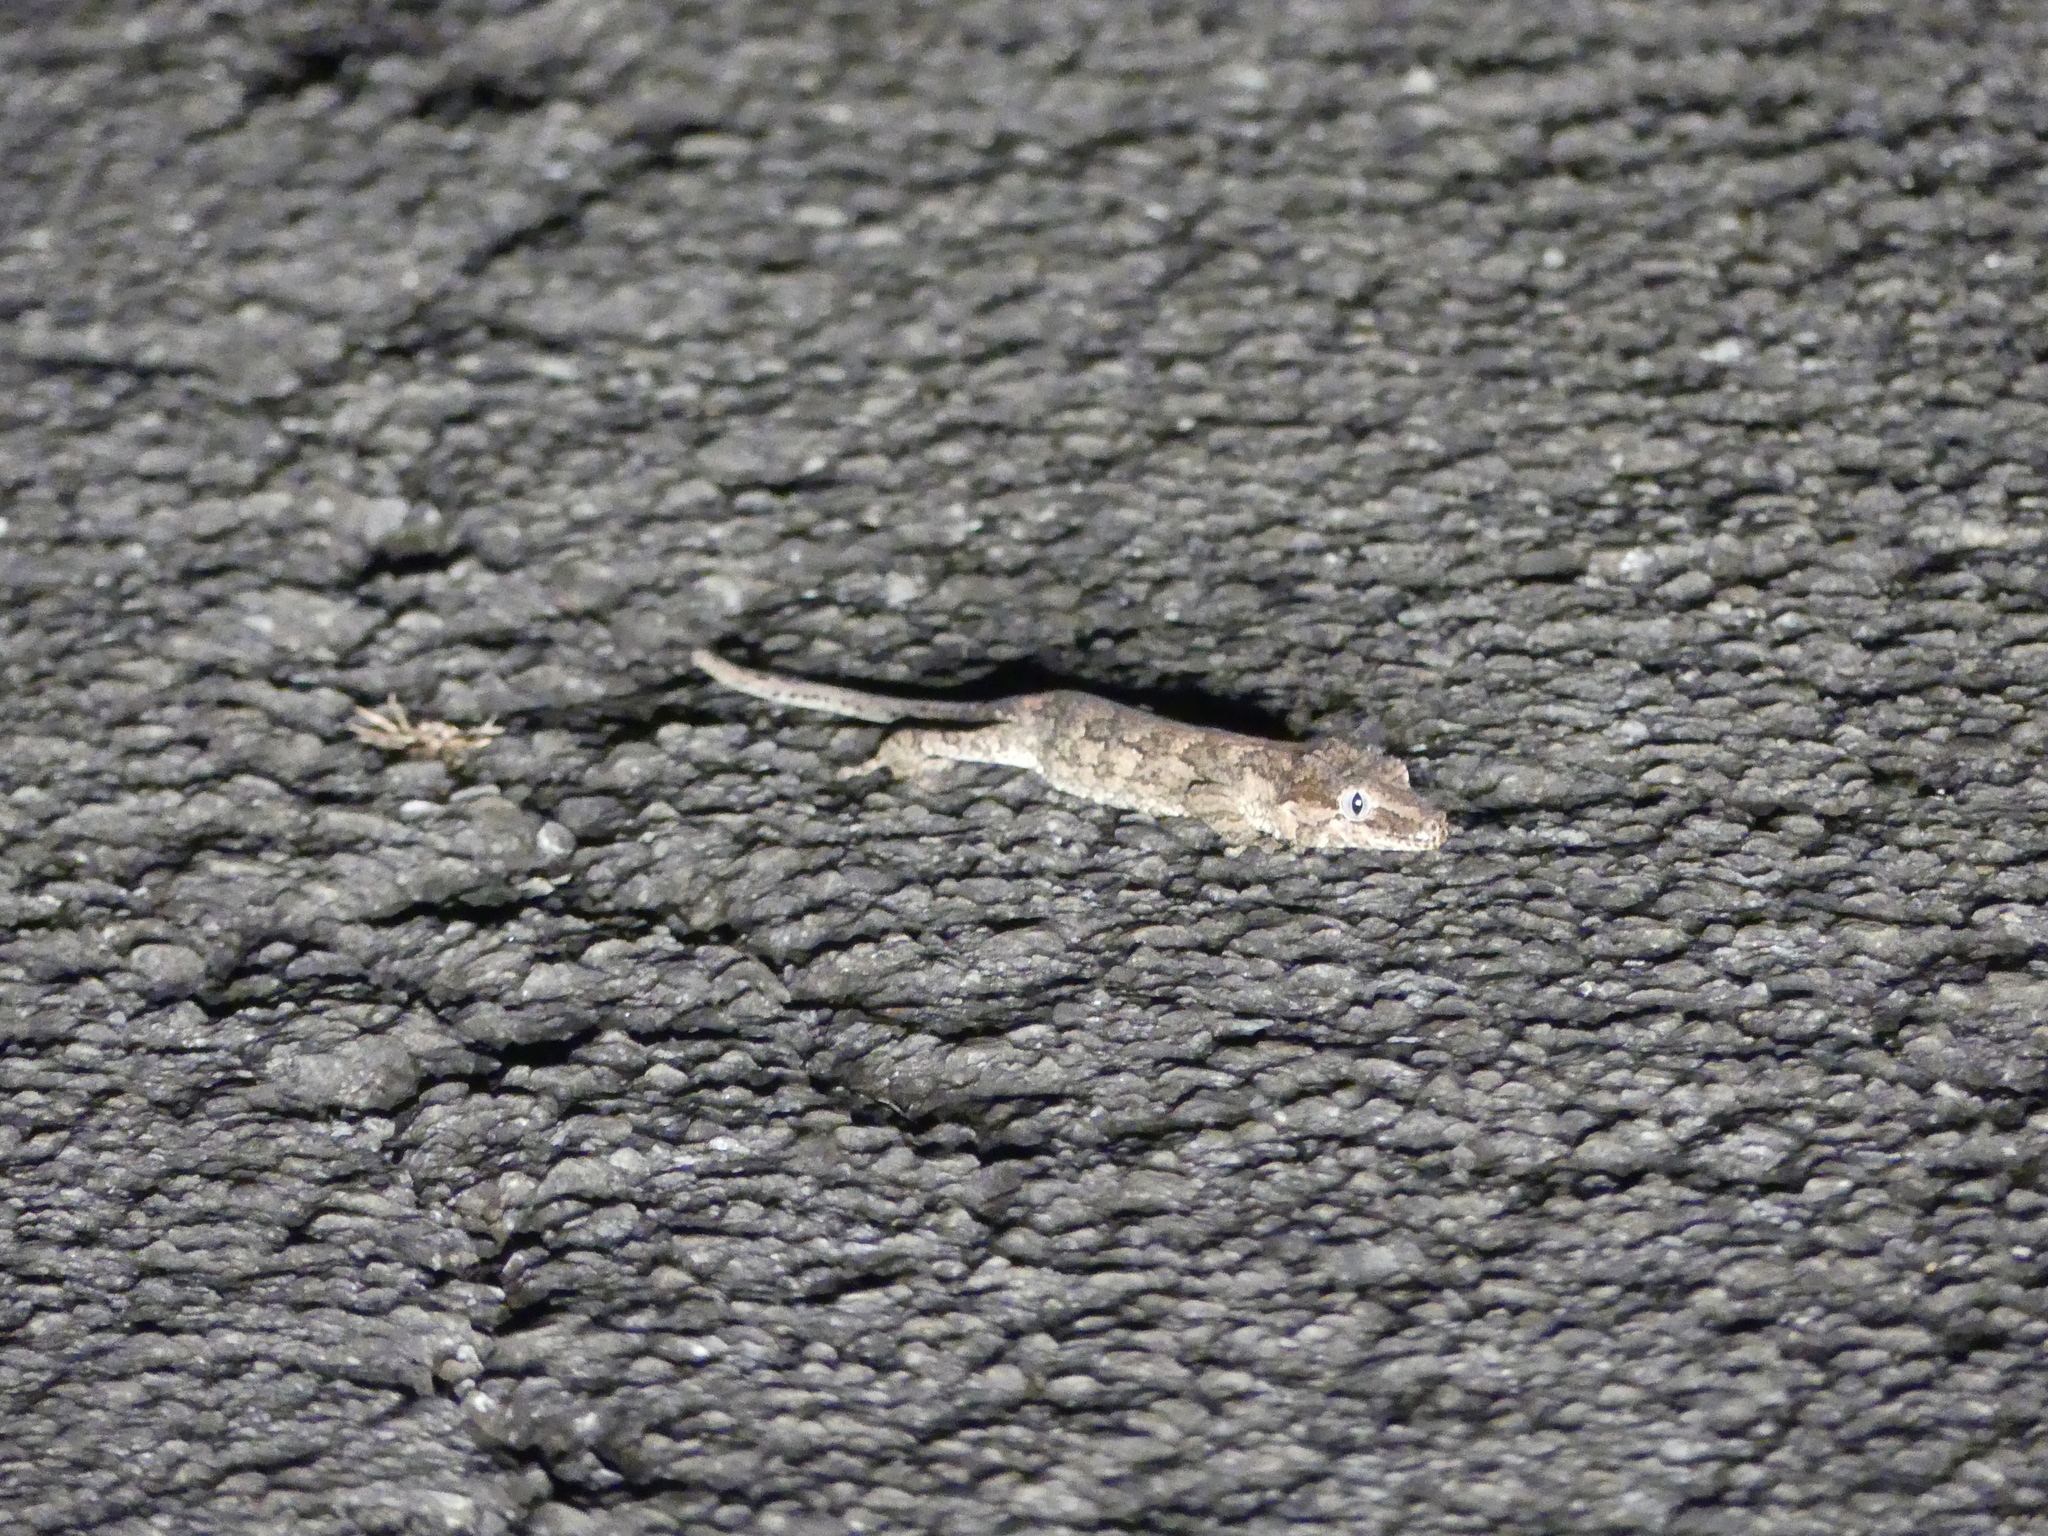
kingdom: Animalia
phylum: Chordata
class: Squamata
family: Diplodactylidae
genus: Rhacodactylus
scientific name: Rhacodactylus auriculatus
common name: Knob-headed giant gecko
